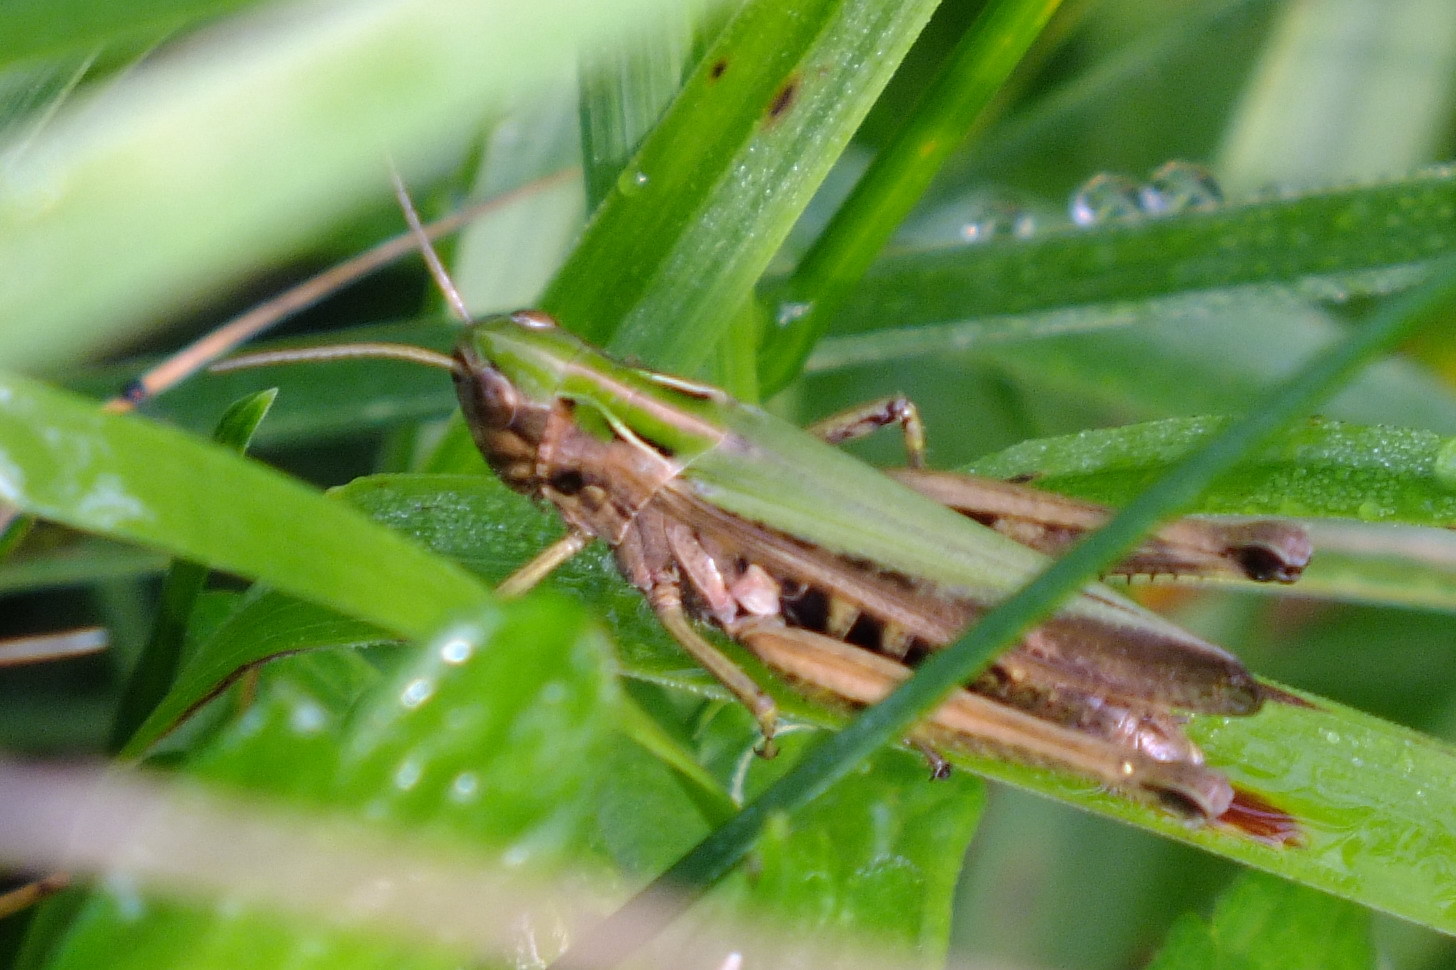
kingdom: Animalia
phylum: Arthropoda
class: Insecta
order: Orthoptera
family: Acrididae
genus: Omocestus
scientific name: Omocestus viridulus
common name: Common green grasshopper
